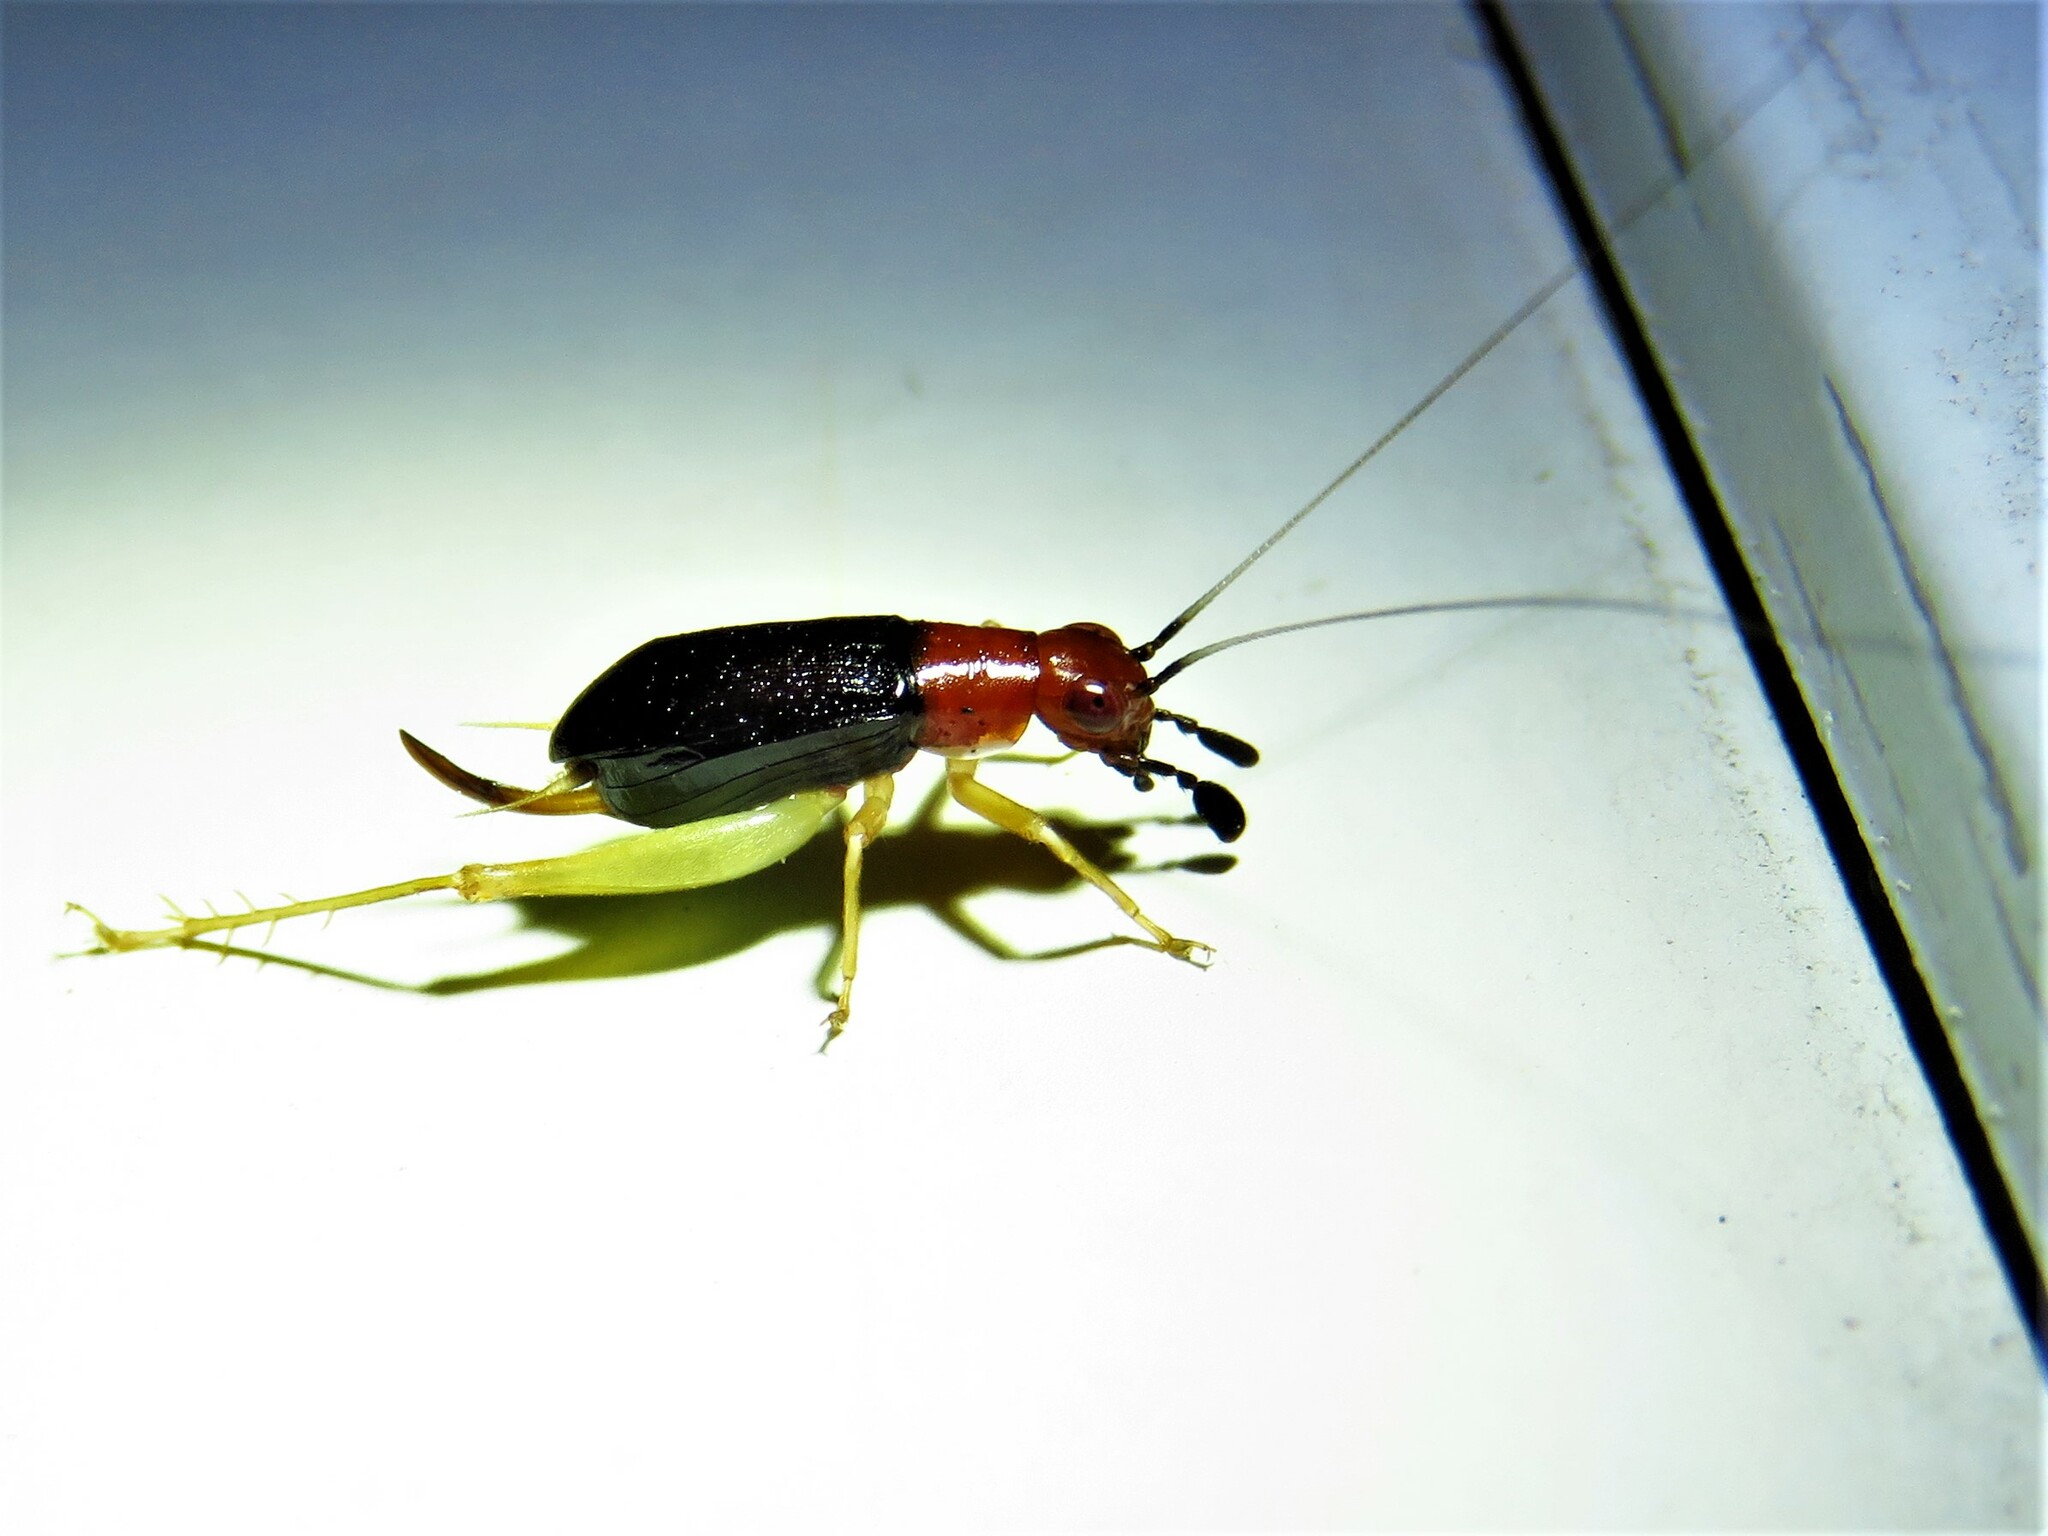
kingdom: Animalia
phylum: Arthropoda
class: Insecta
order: Orthoptera
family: Trigonidiidae
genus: Phyllopalpus
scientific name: Phyllopalpus pulchellus
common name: Handsome trig
